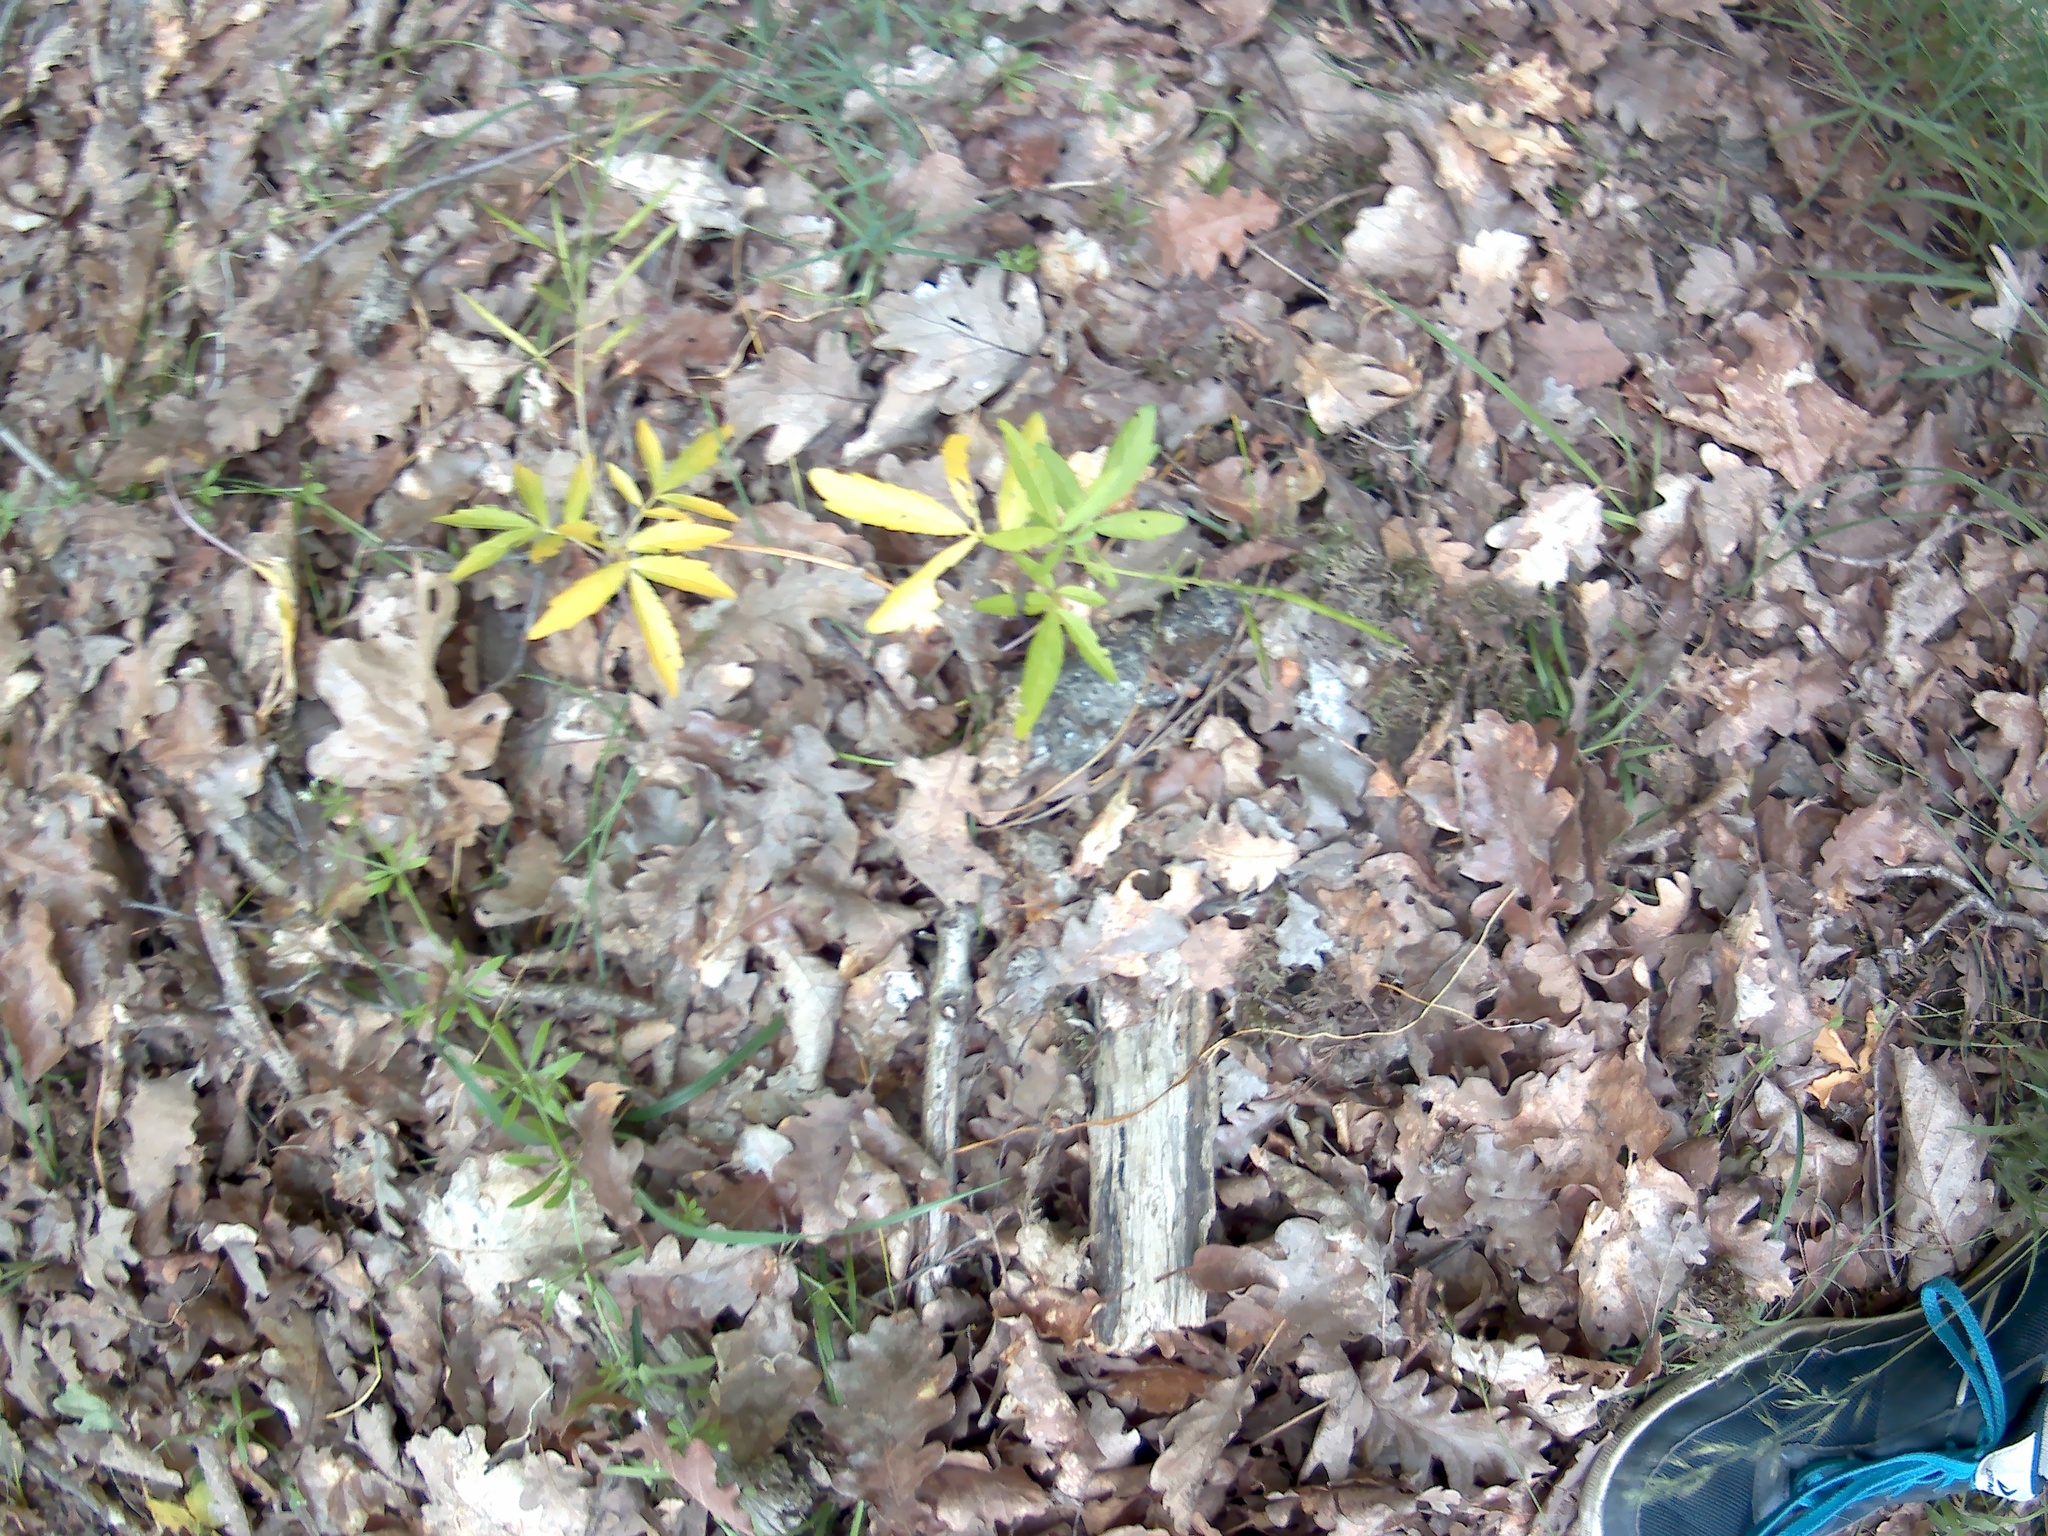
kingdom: Plantae
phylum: Tracheophyta
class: Magnoliopsida
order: Brassicales
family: Brassicaceae
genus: Cardamine
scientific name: Cardamine quinquefolia
